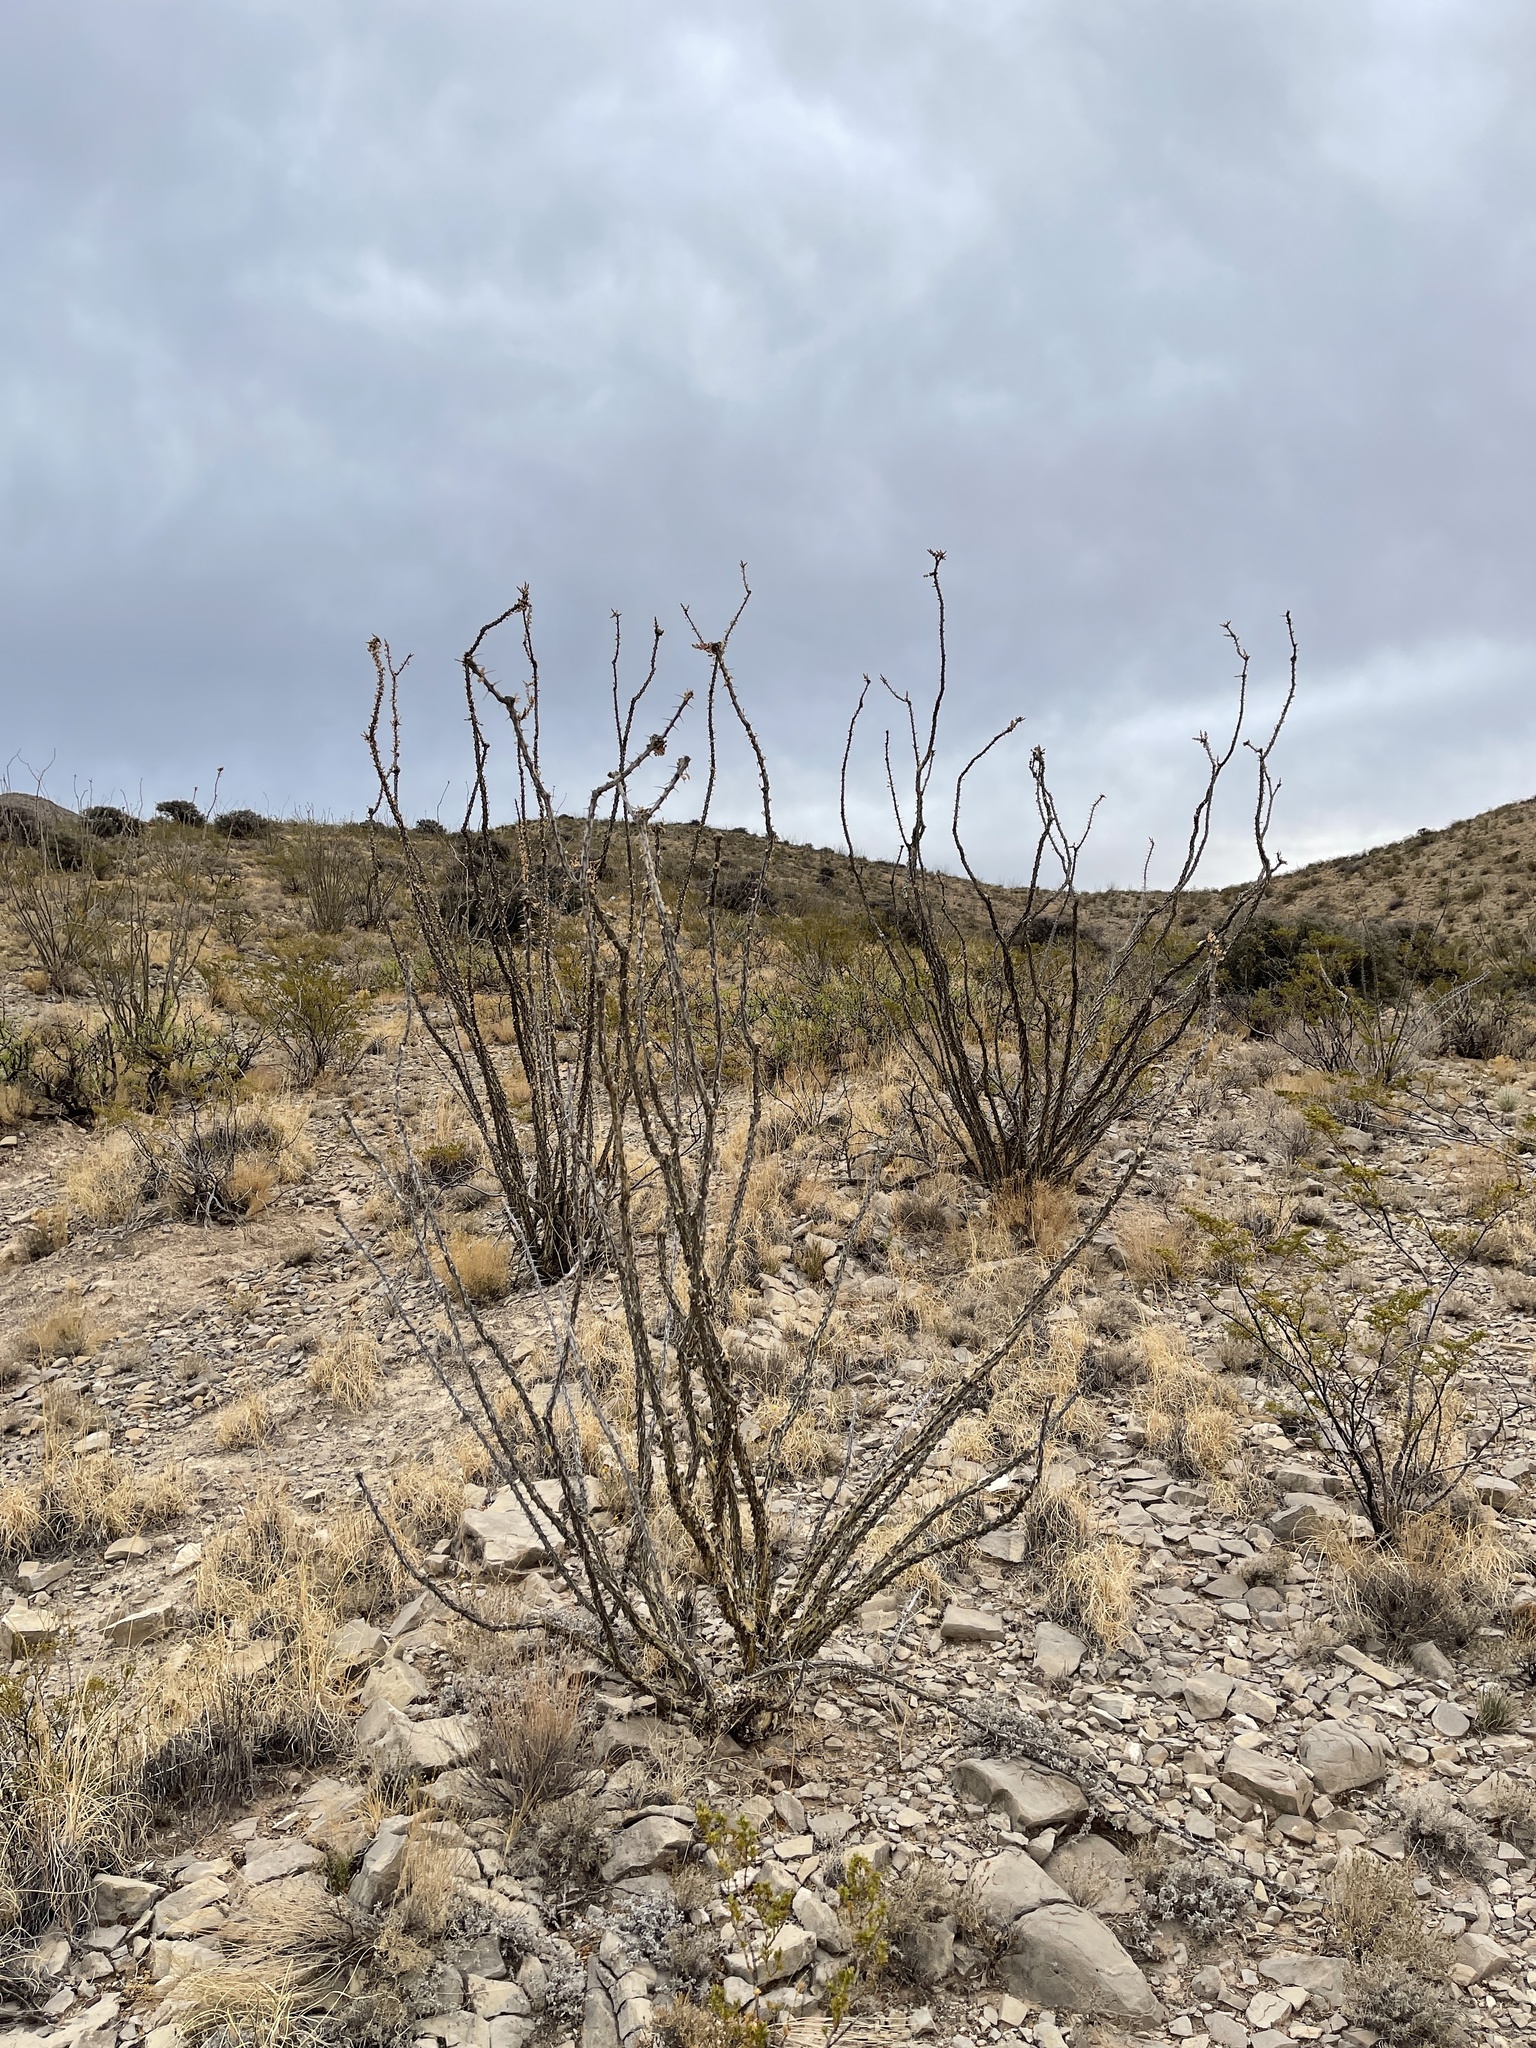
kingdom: Plantae
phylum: Tracheophyta
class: Magnoliopsida
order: Ericales
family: Fouquieriaceae
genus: Fouquieria
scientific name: Fouquieria splendens
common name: Vine-cactus
